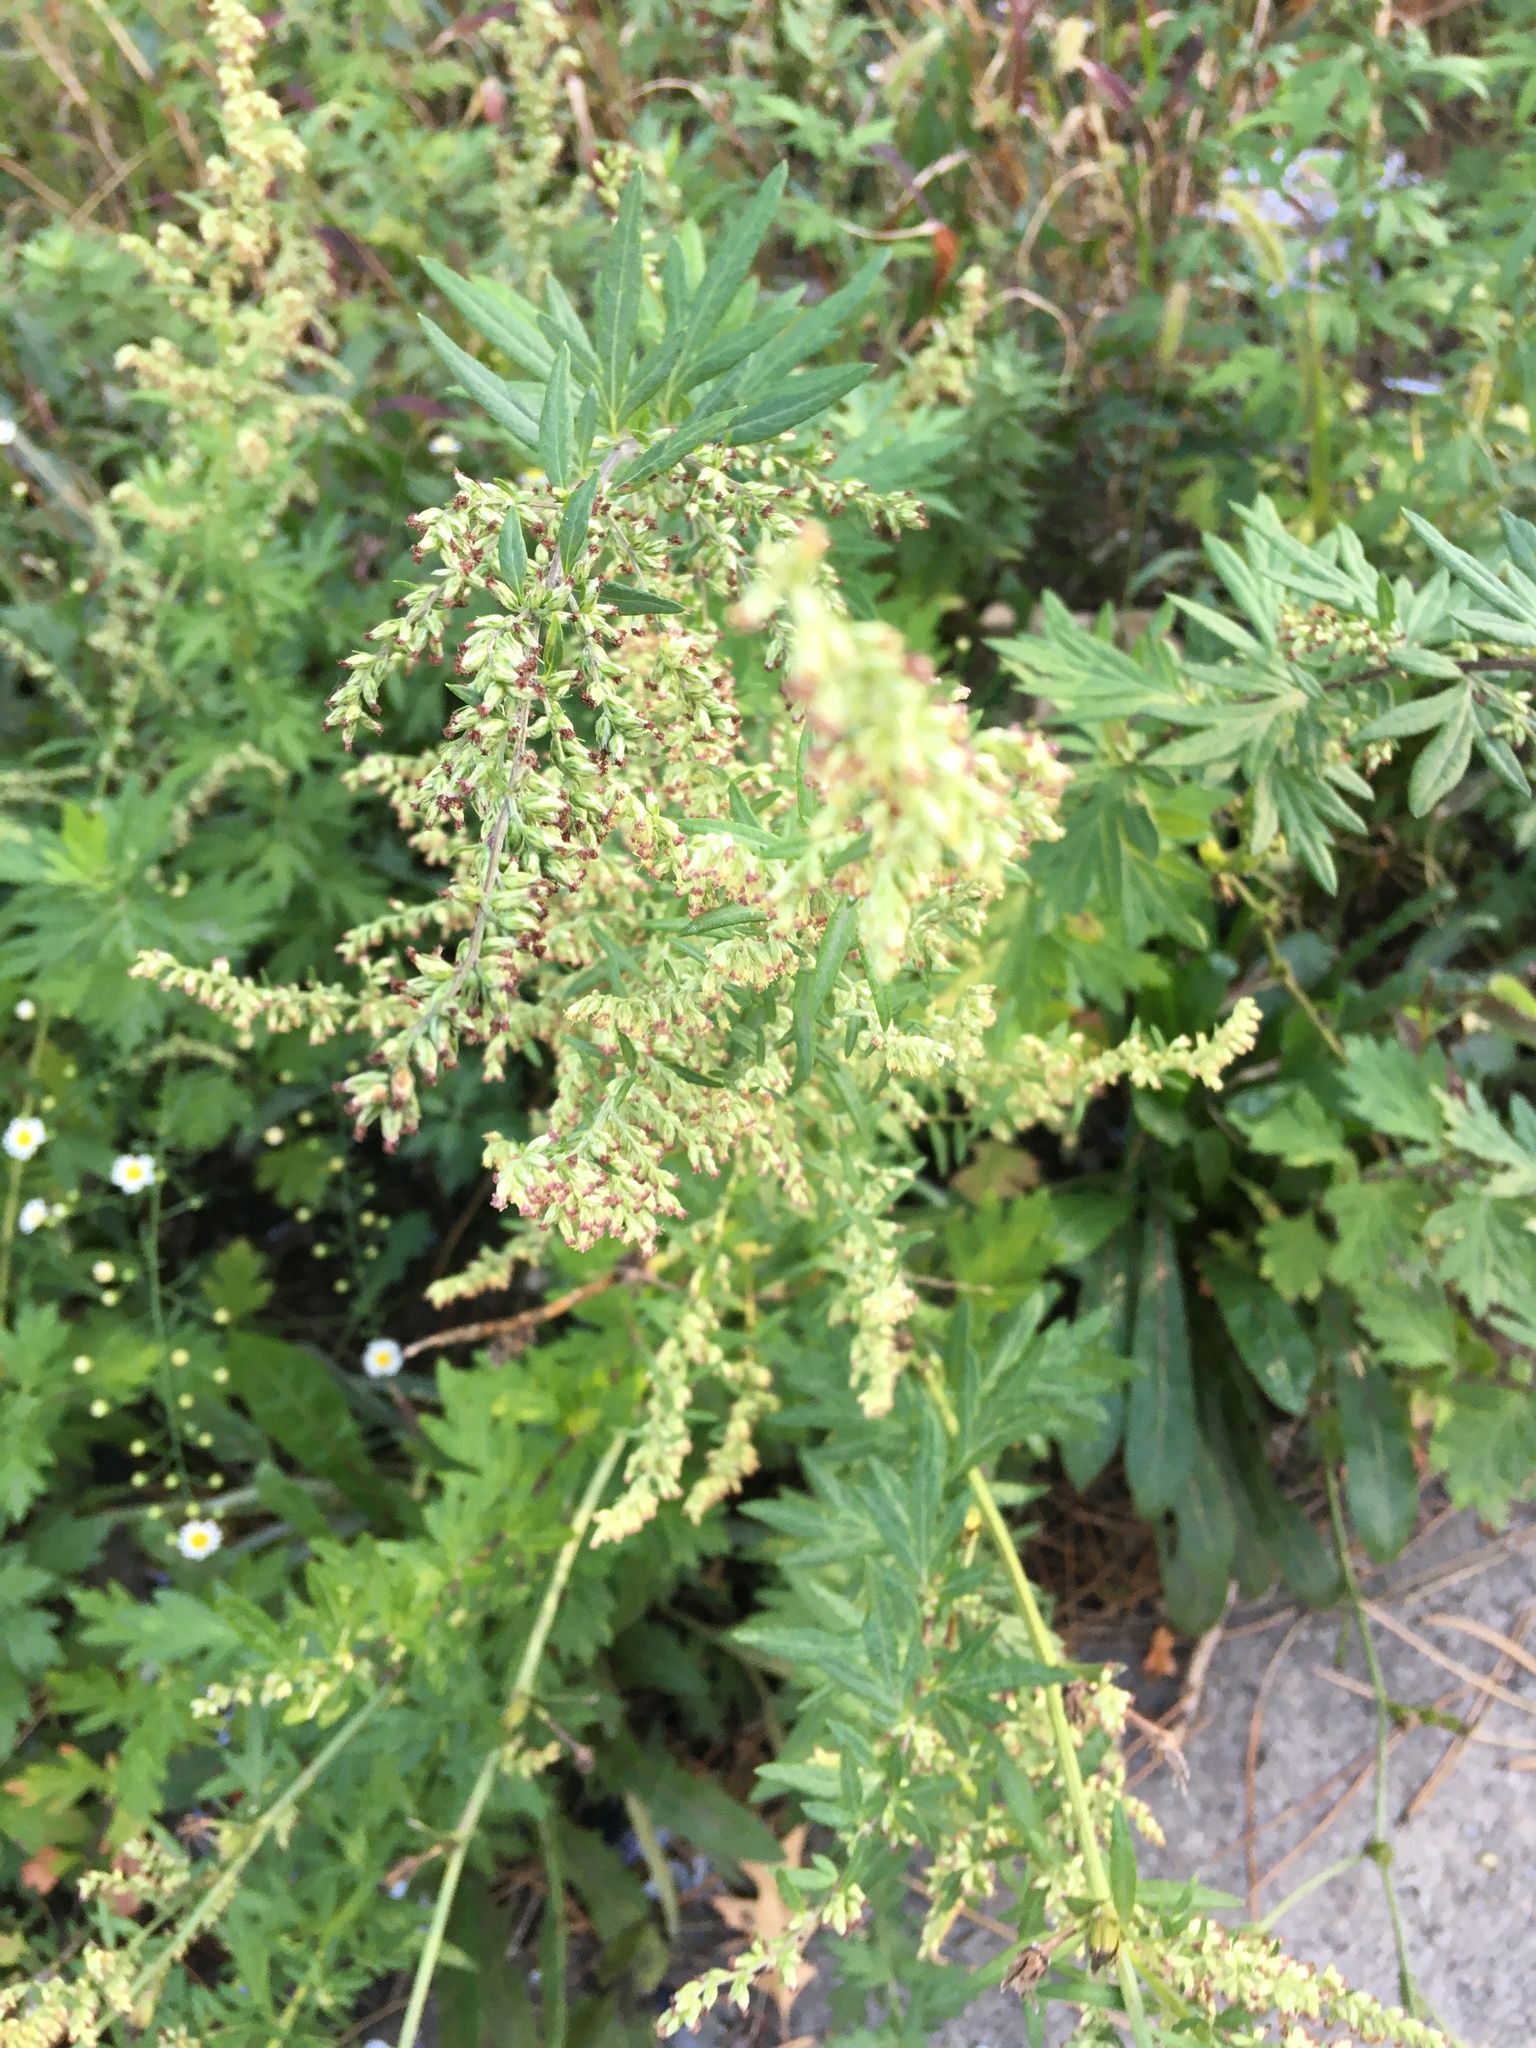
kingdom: Plantae
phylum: Tracheophyta
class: Magnoliopsida
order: Asterales
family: Asteraceae
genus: Artemisia
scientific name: Artemisia vulgaris
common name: Mugwort
